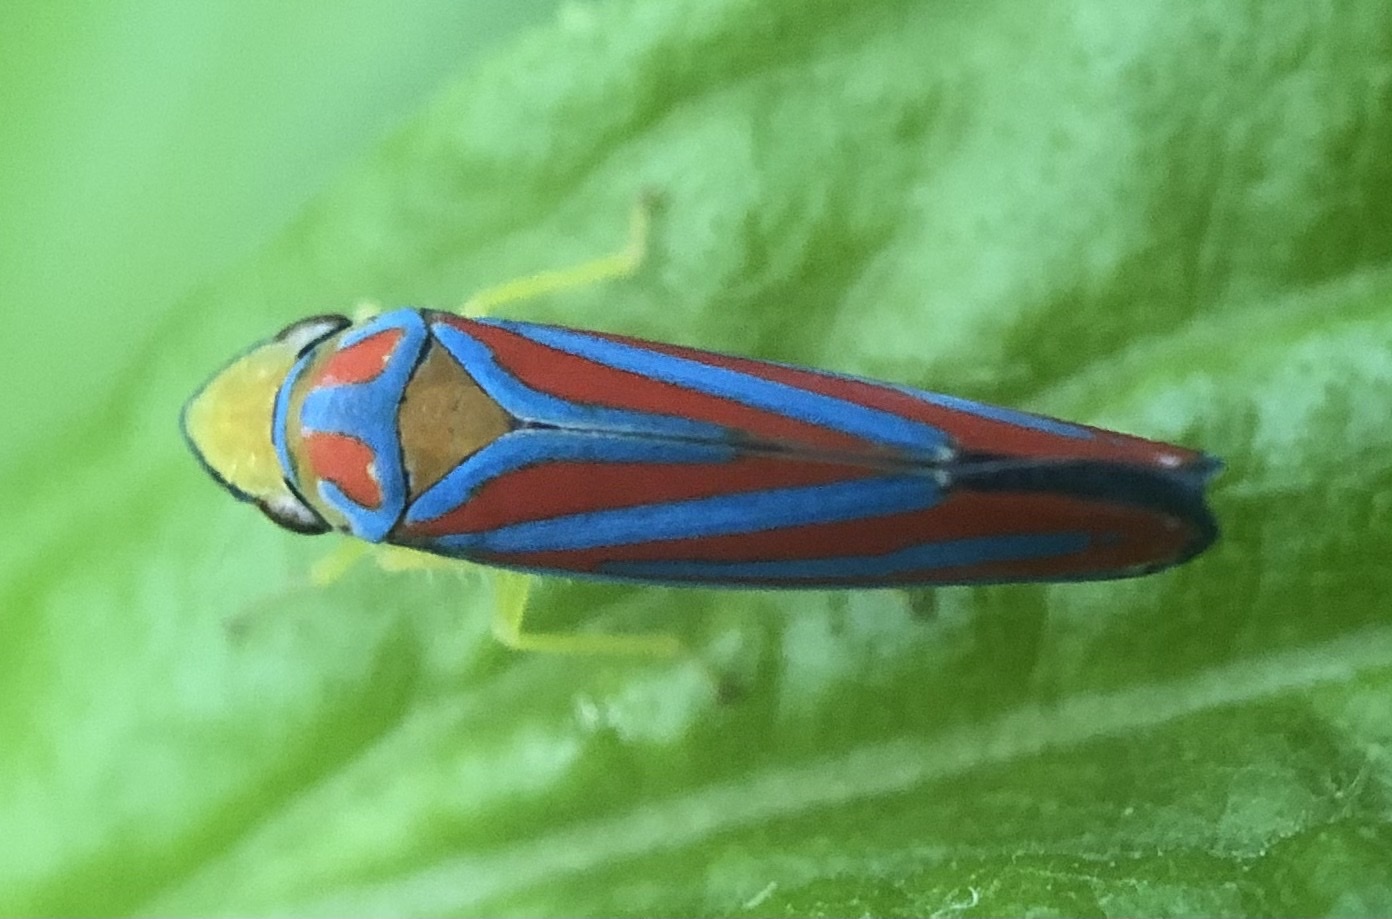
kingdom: Animalia
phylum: Arthropoda
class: Insecta
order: Hemiptera
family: Cicadellidae
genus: Graphocephala
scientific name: Graphocephala coccinea
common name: Candy-striped leafhopper
